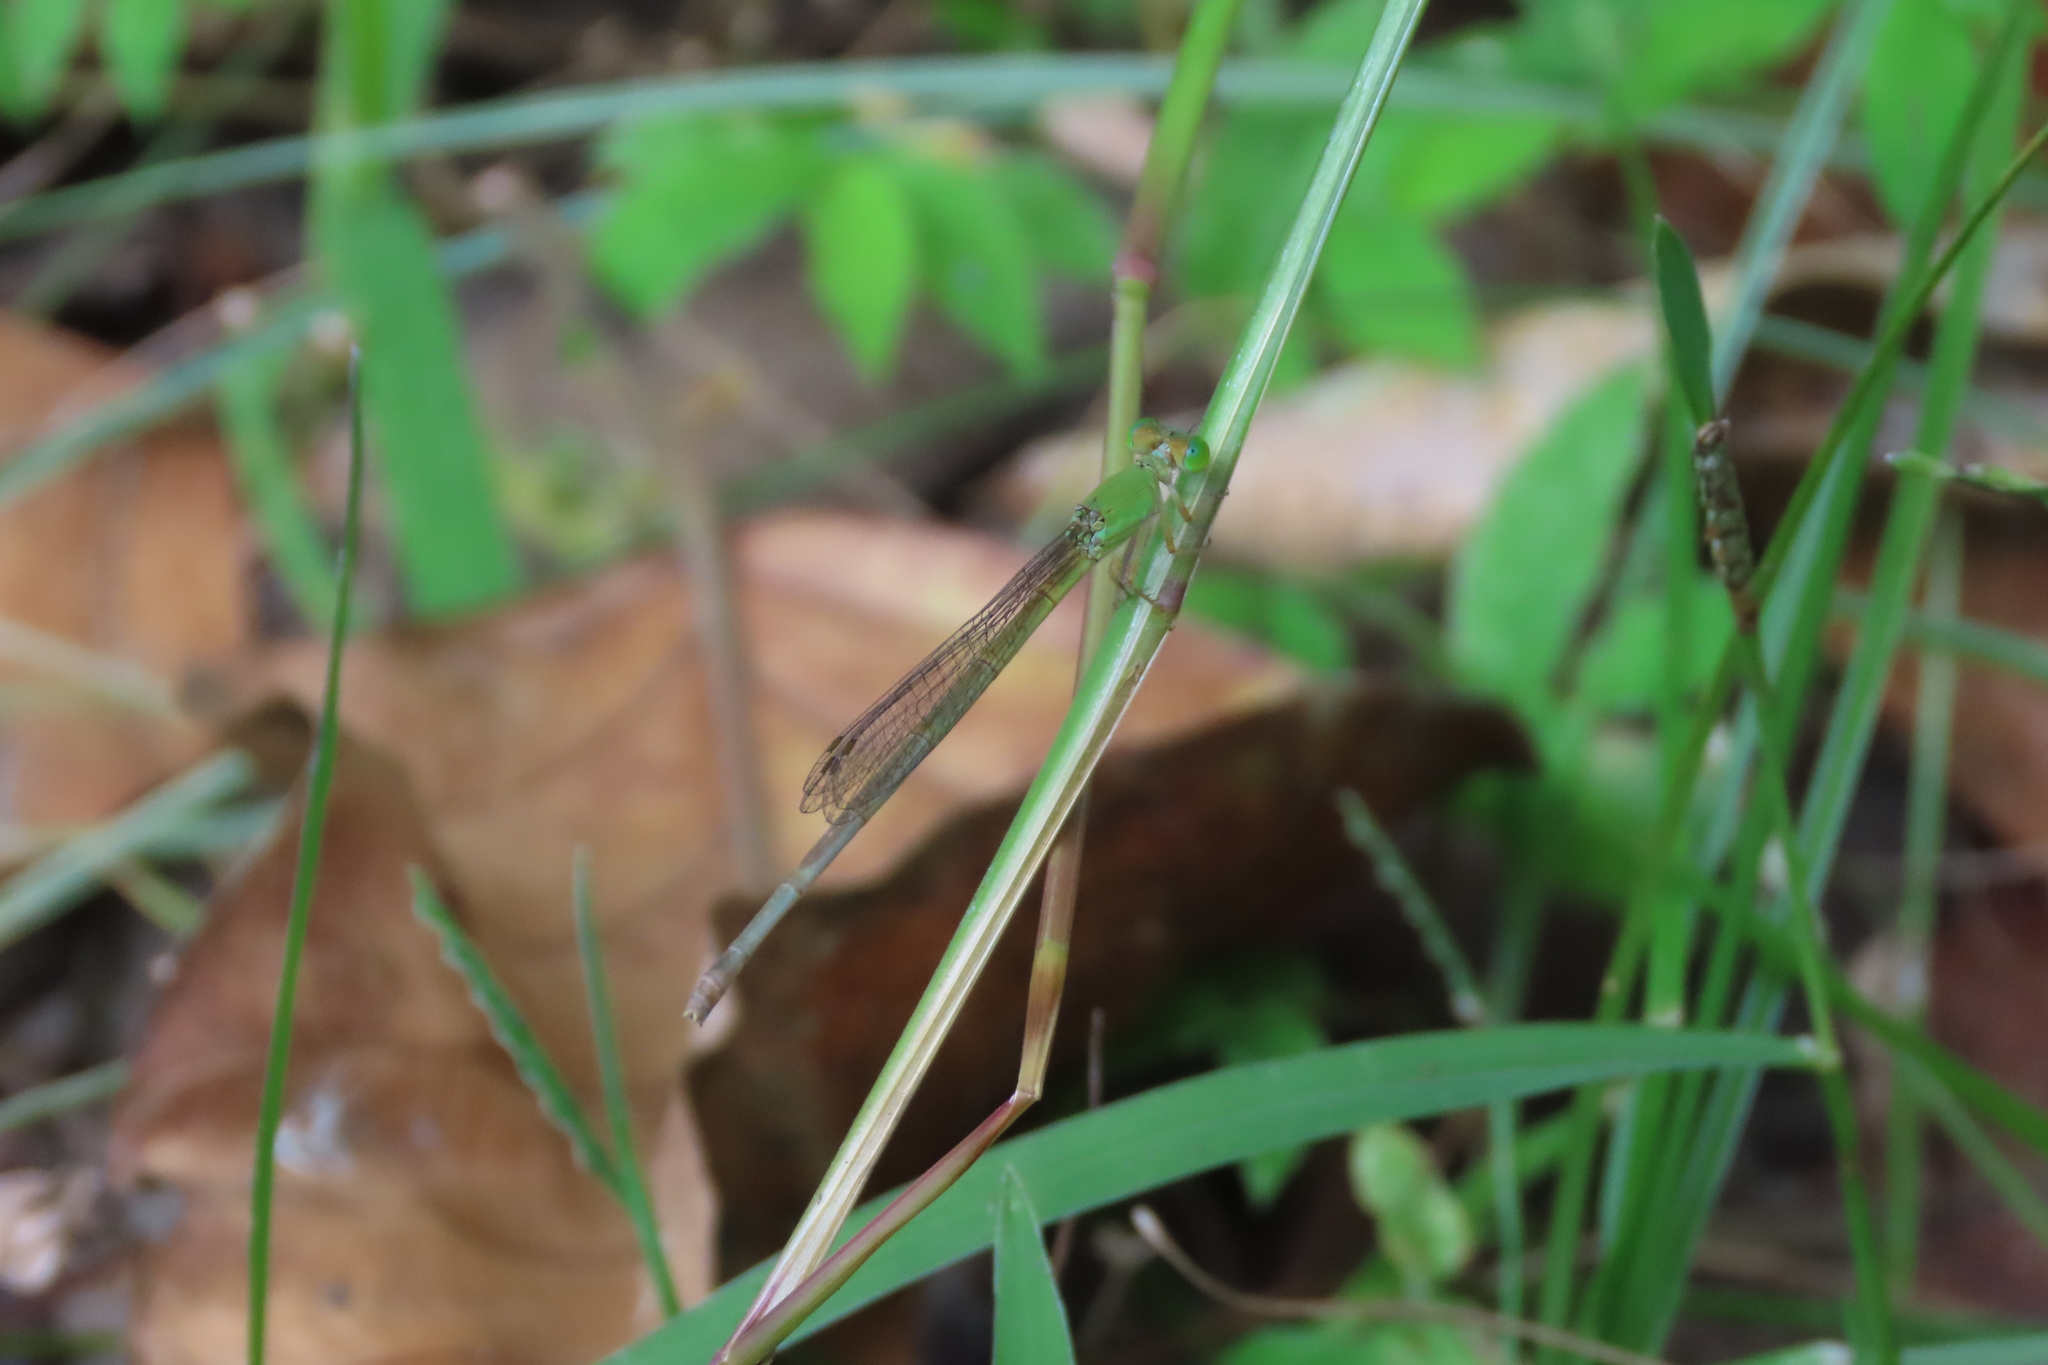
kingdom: Animalia
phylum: Arthropoda
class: Insecta
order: Odonata
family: Coenagrionidae
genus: Ceriagrion
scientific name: Ceriagrion coromandelianum
